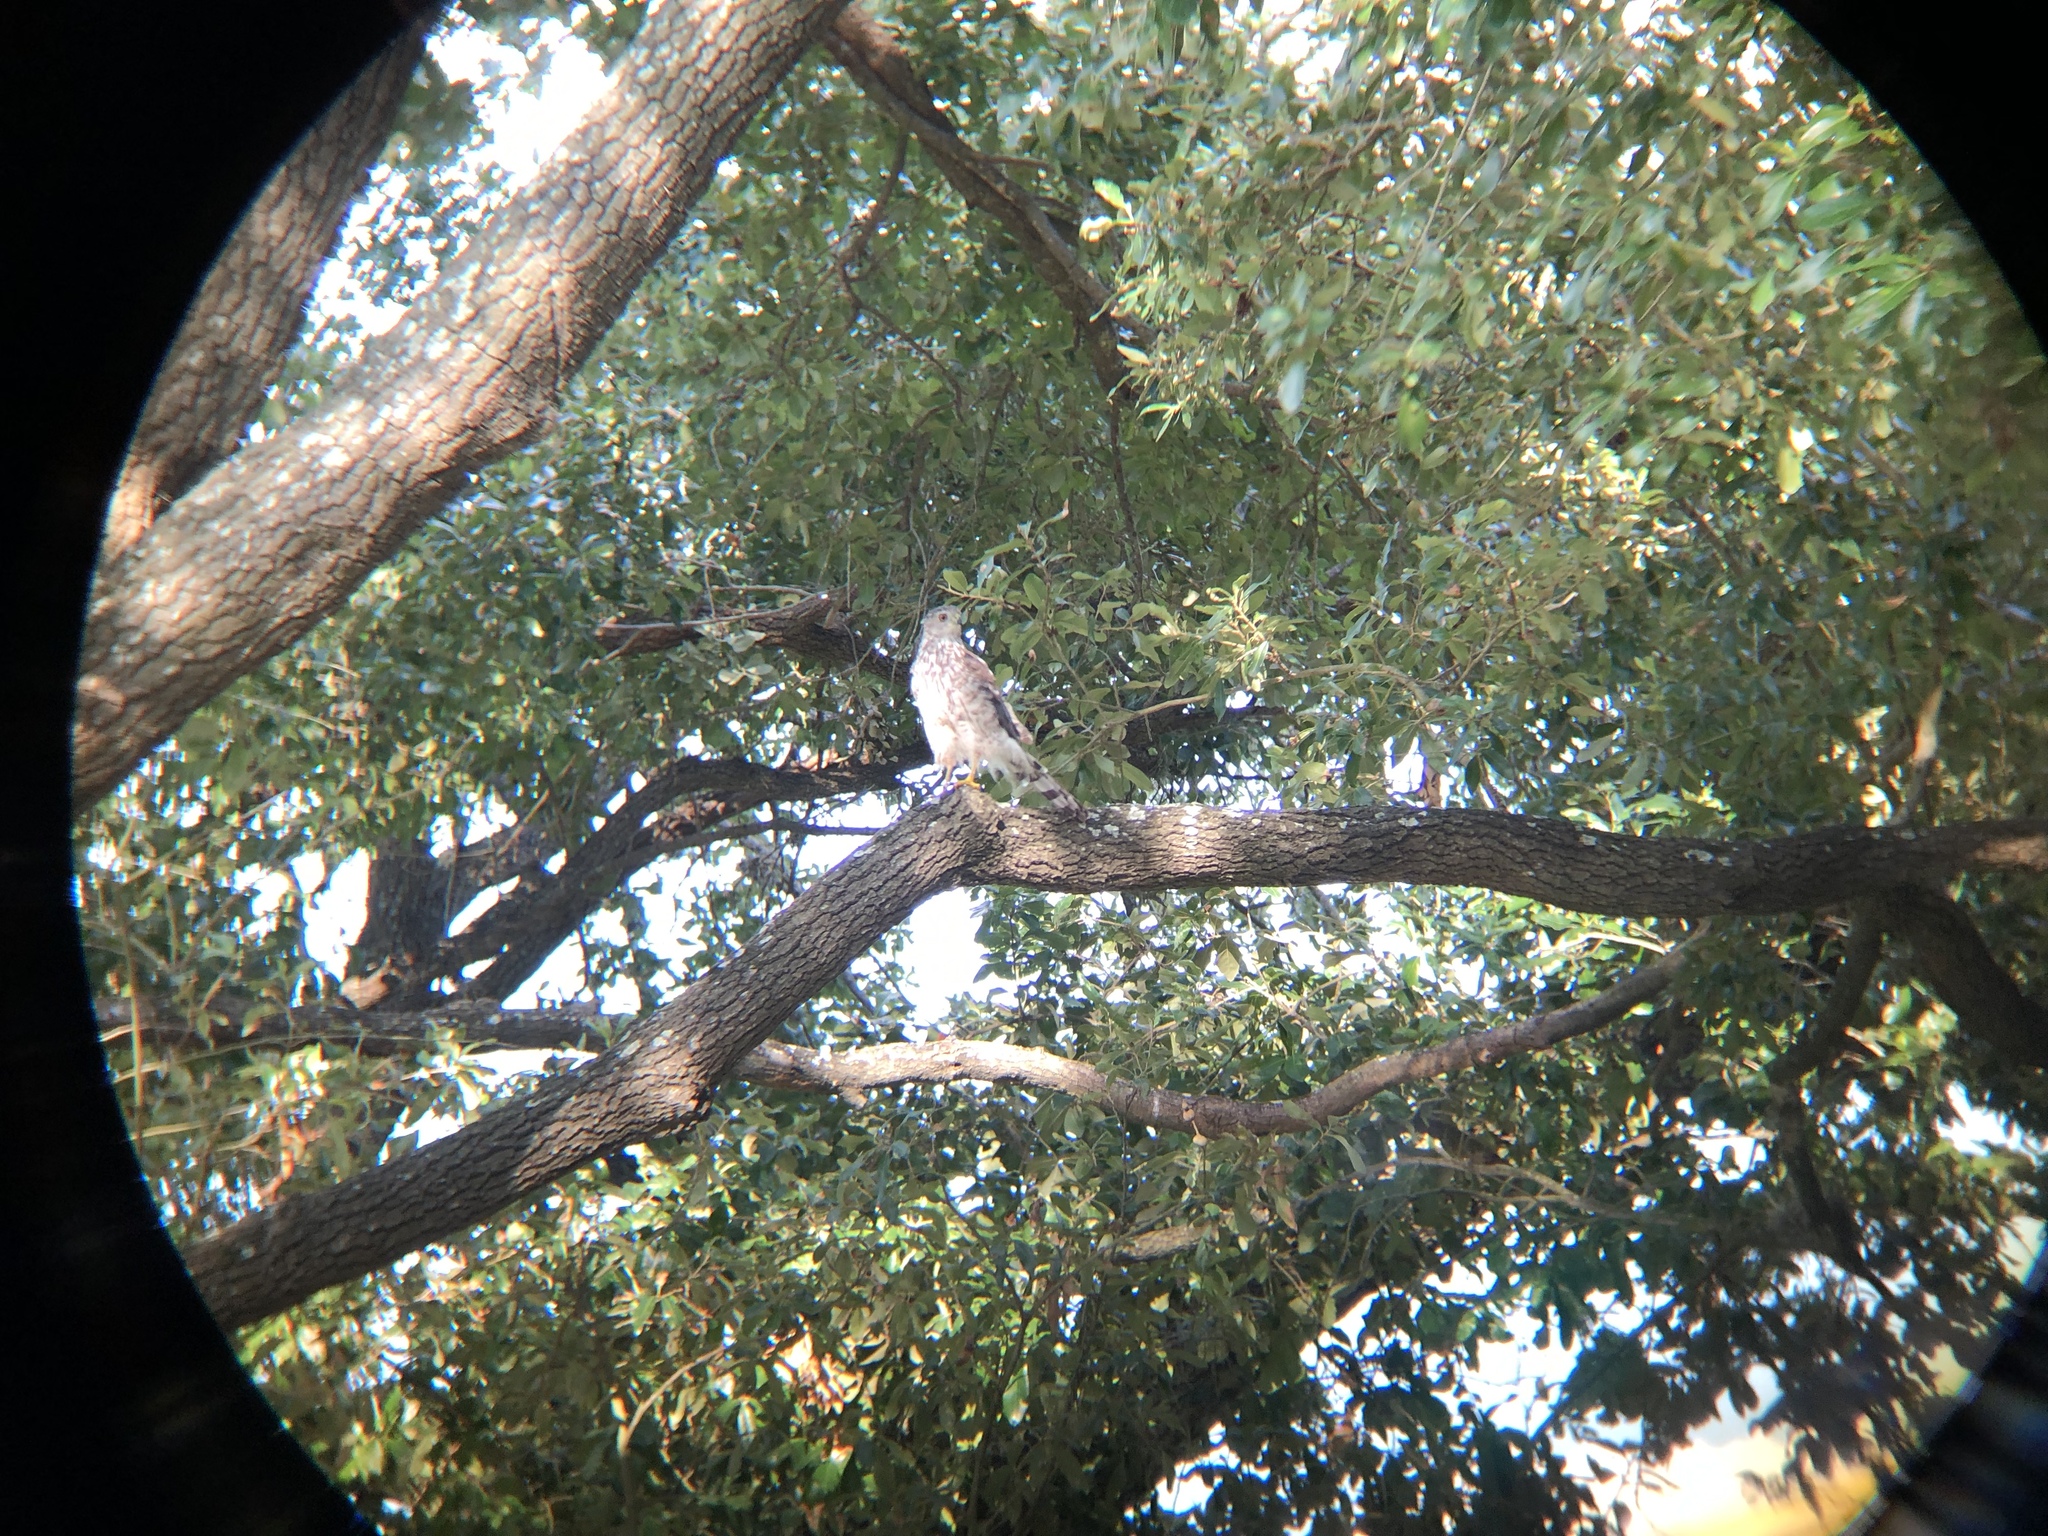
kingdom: Animalia
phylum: Chordata
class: Aves
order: Accipitriformes
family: Accipitridae
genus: Accipiter
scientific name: Accipiter cooperii
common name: Cooper's hawk
